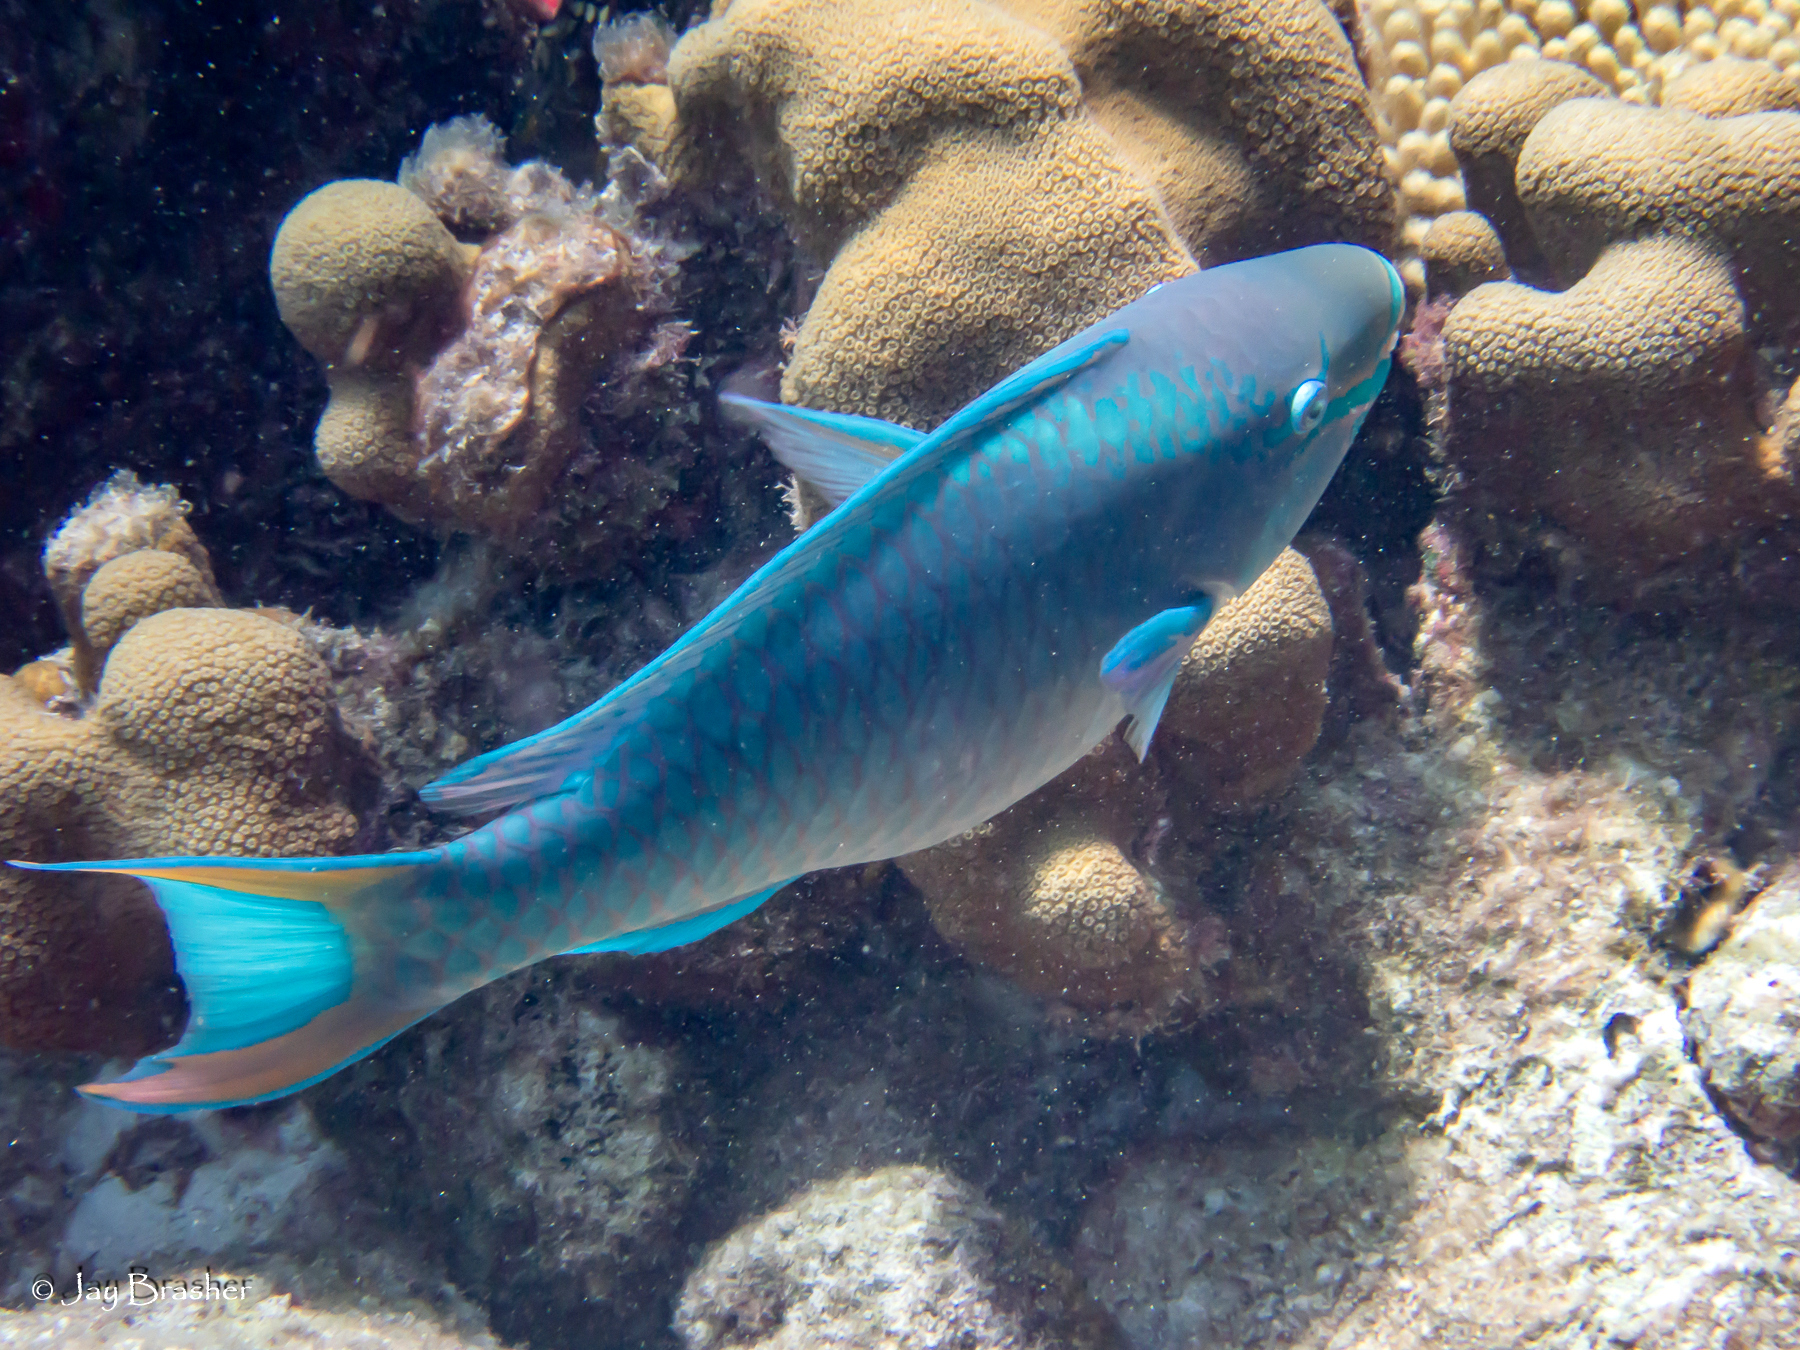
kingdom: Animalia
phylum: Chordata
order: Perciformes
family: Scaridae
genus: Scarus
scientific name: Scarus vetula
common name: Queen parrotfish
